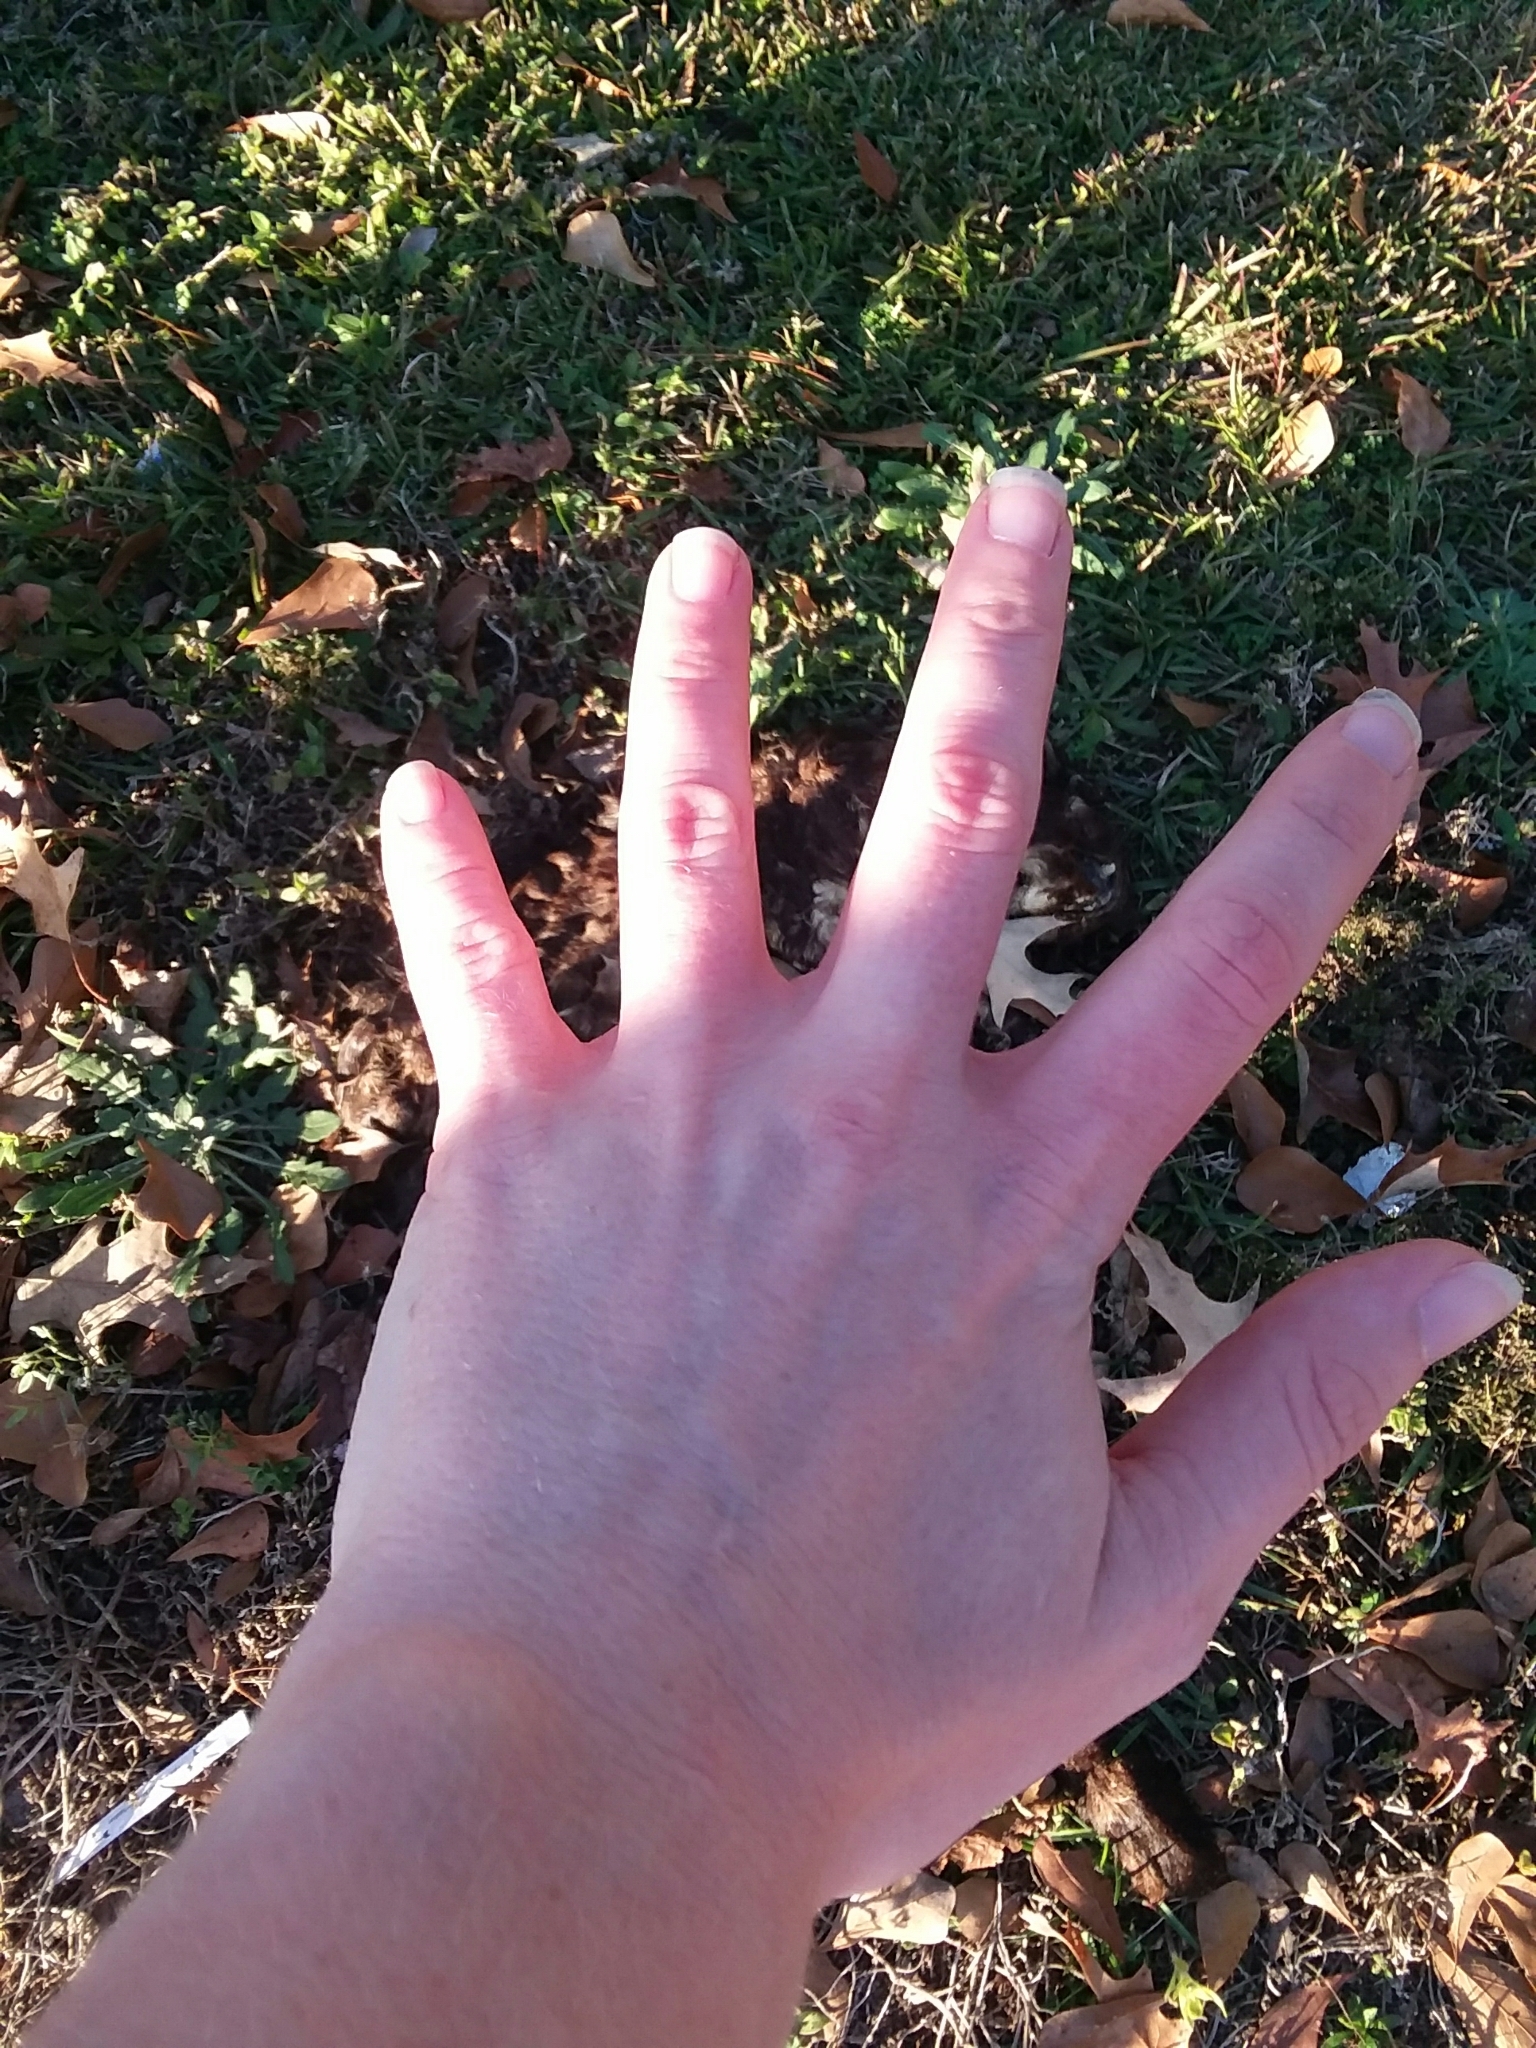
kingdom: Animalia
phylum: Chordata
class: Mammalia
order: Carnivora
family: Felidae
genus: Felis
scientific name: Felis catus
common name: Domestic cat
